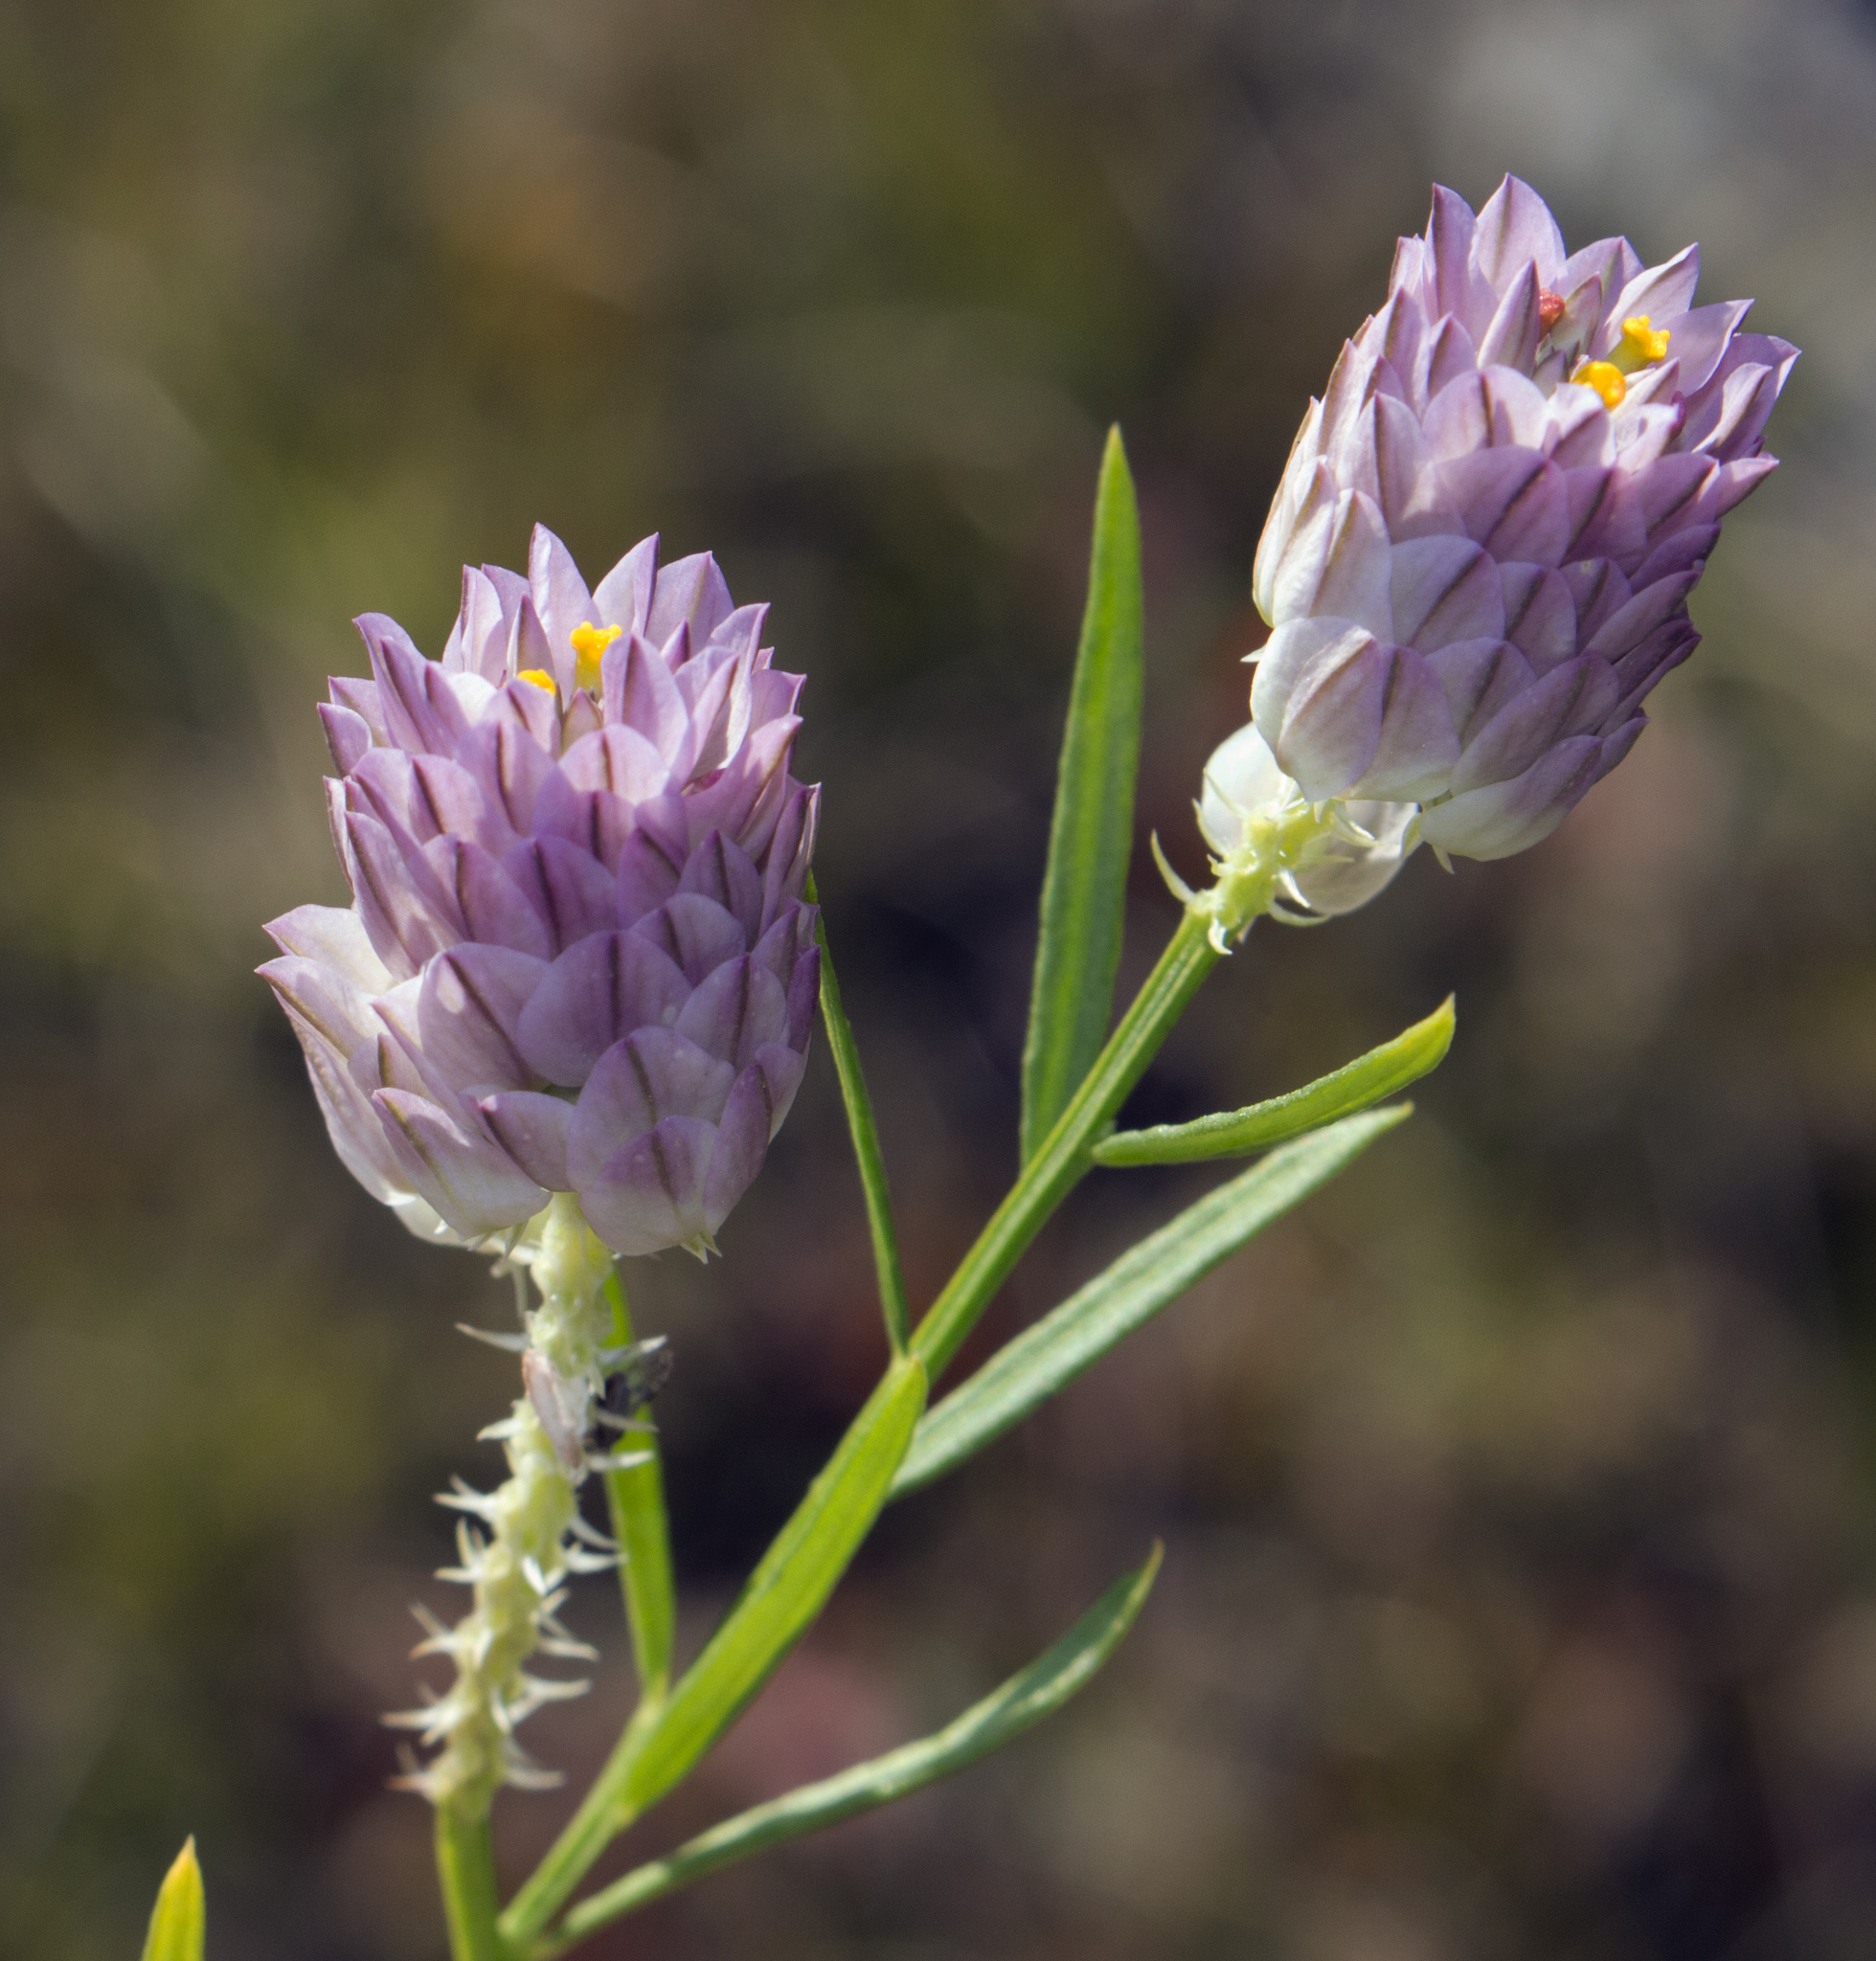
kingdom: Plantae
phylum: Tracheophyta
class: Magnoliopsida
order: Fabales
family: Polygalaceae
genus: Polygala
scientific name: Polygala sanguinea
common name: Blood milkwort
